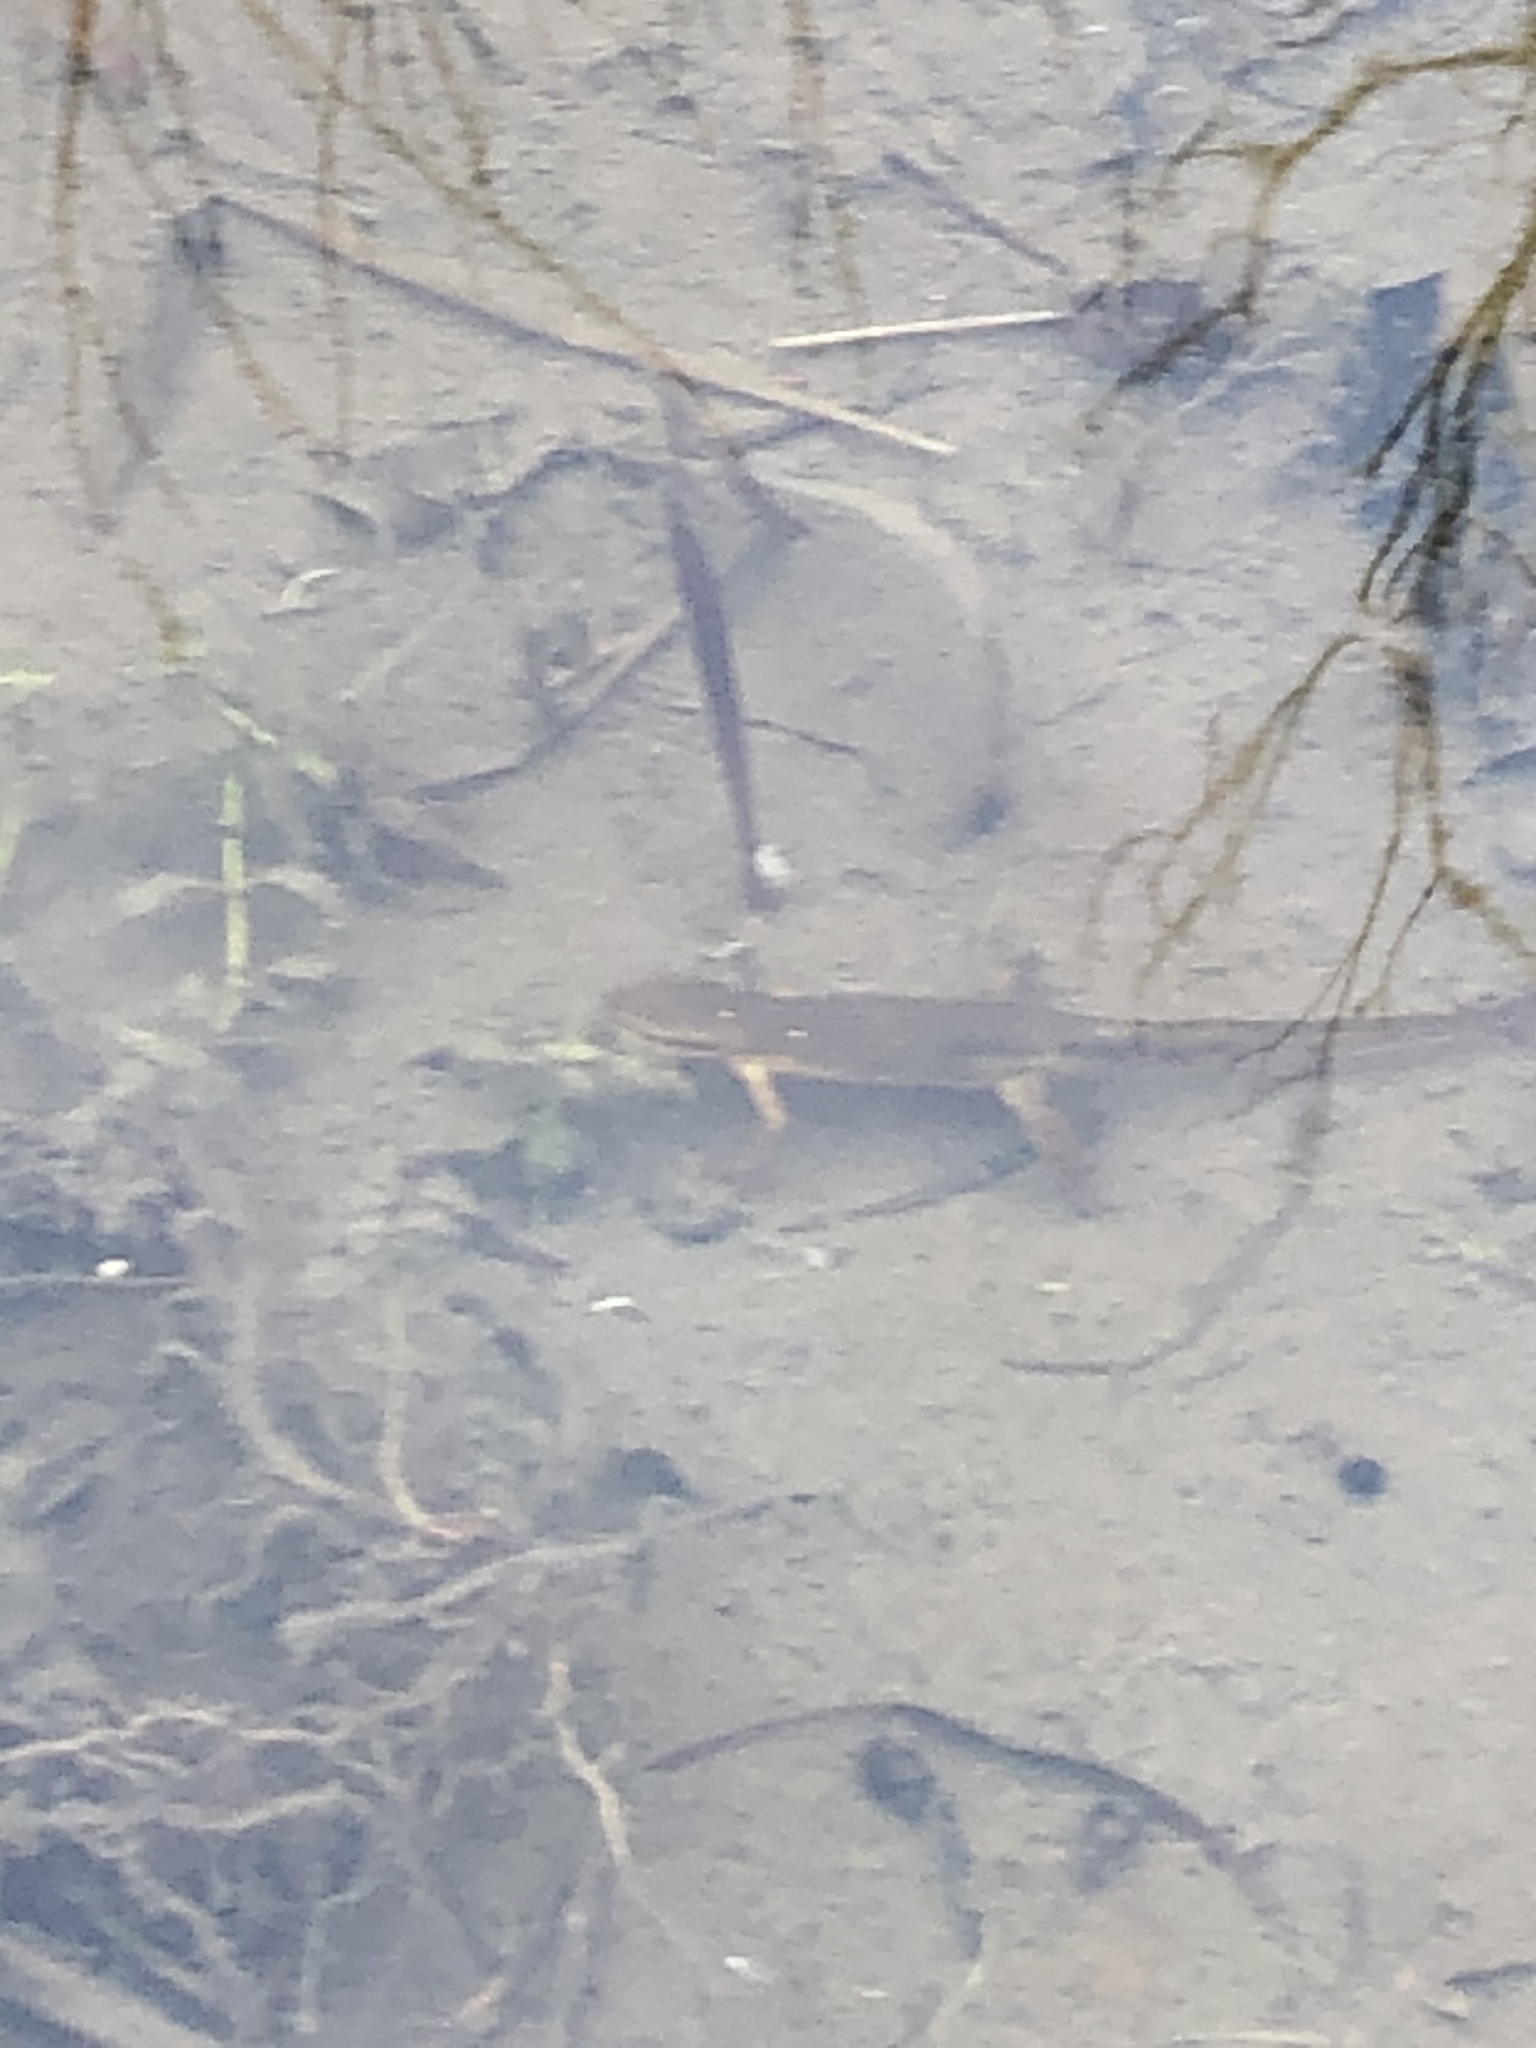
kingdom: Animalia
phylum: Chordata
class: Amphibia
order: Caudata
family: Salamandridae
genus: Notophthalmus
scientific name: Notophthalmus viridescens
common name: Eastern newt
